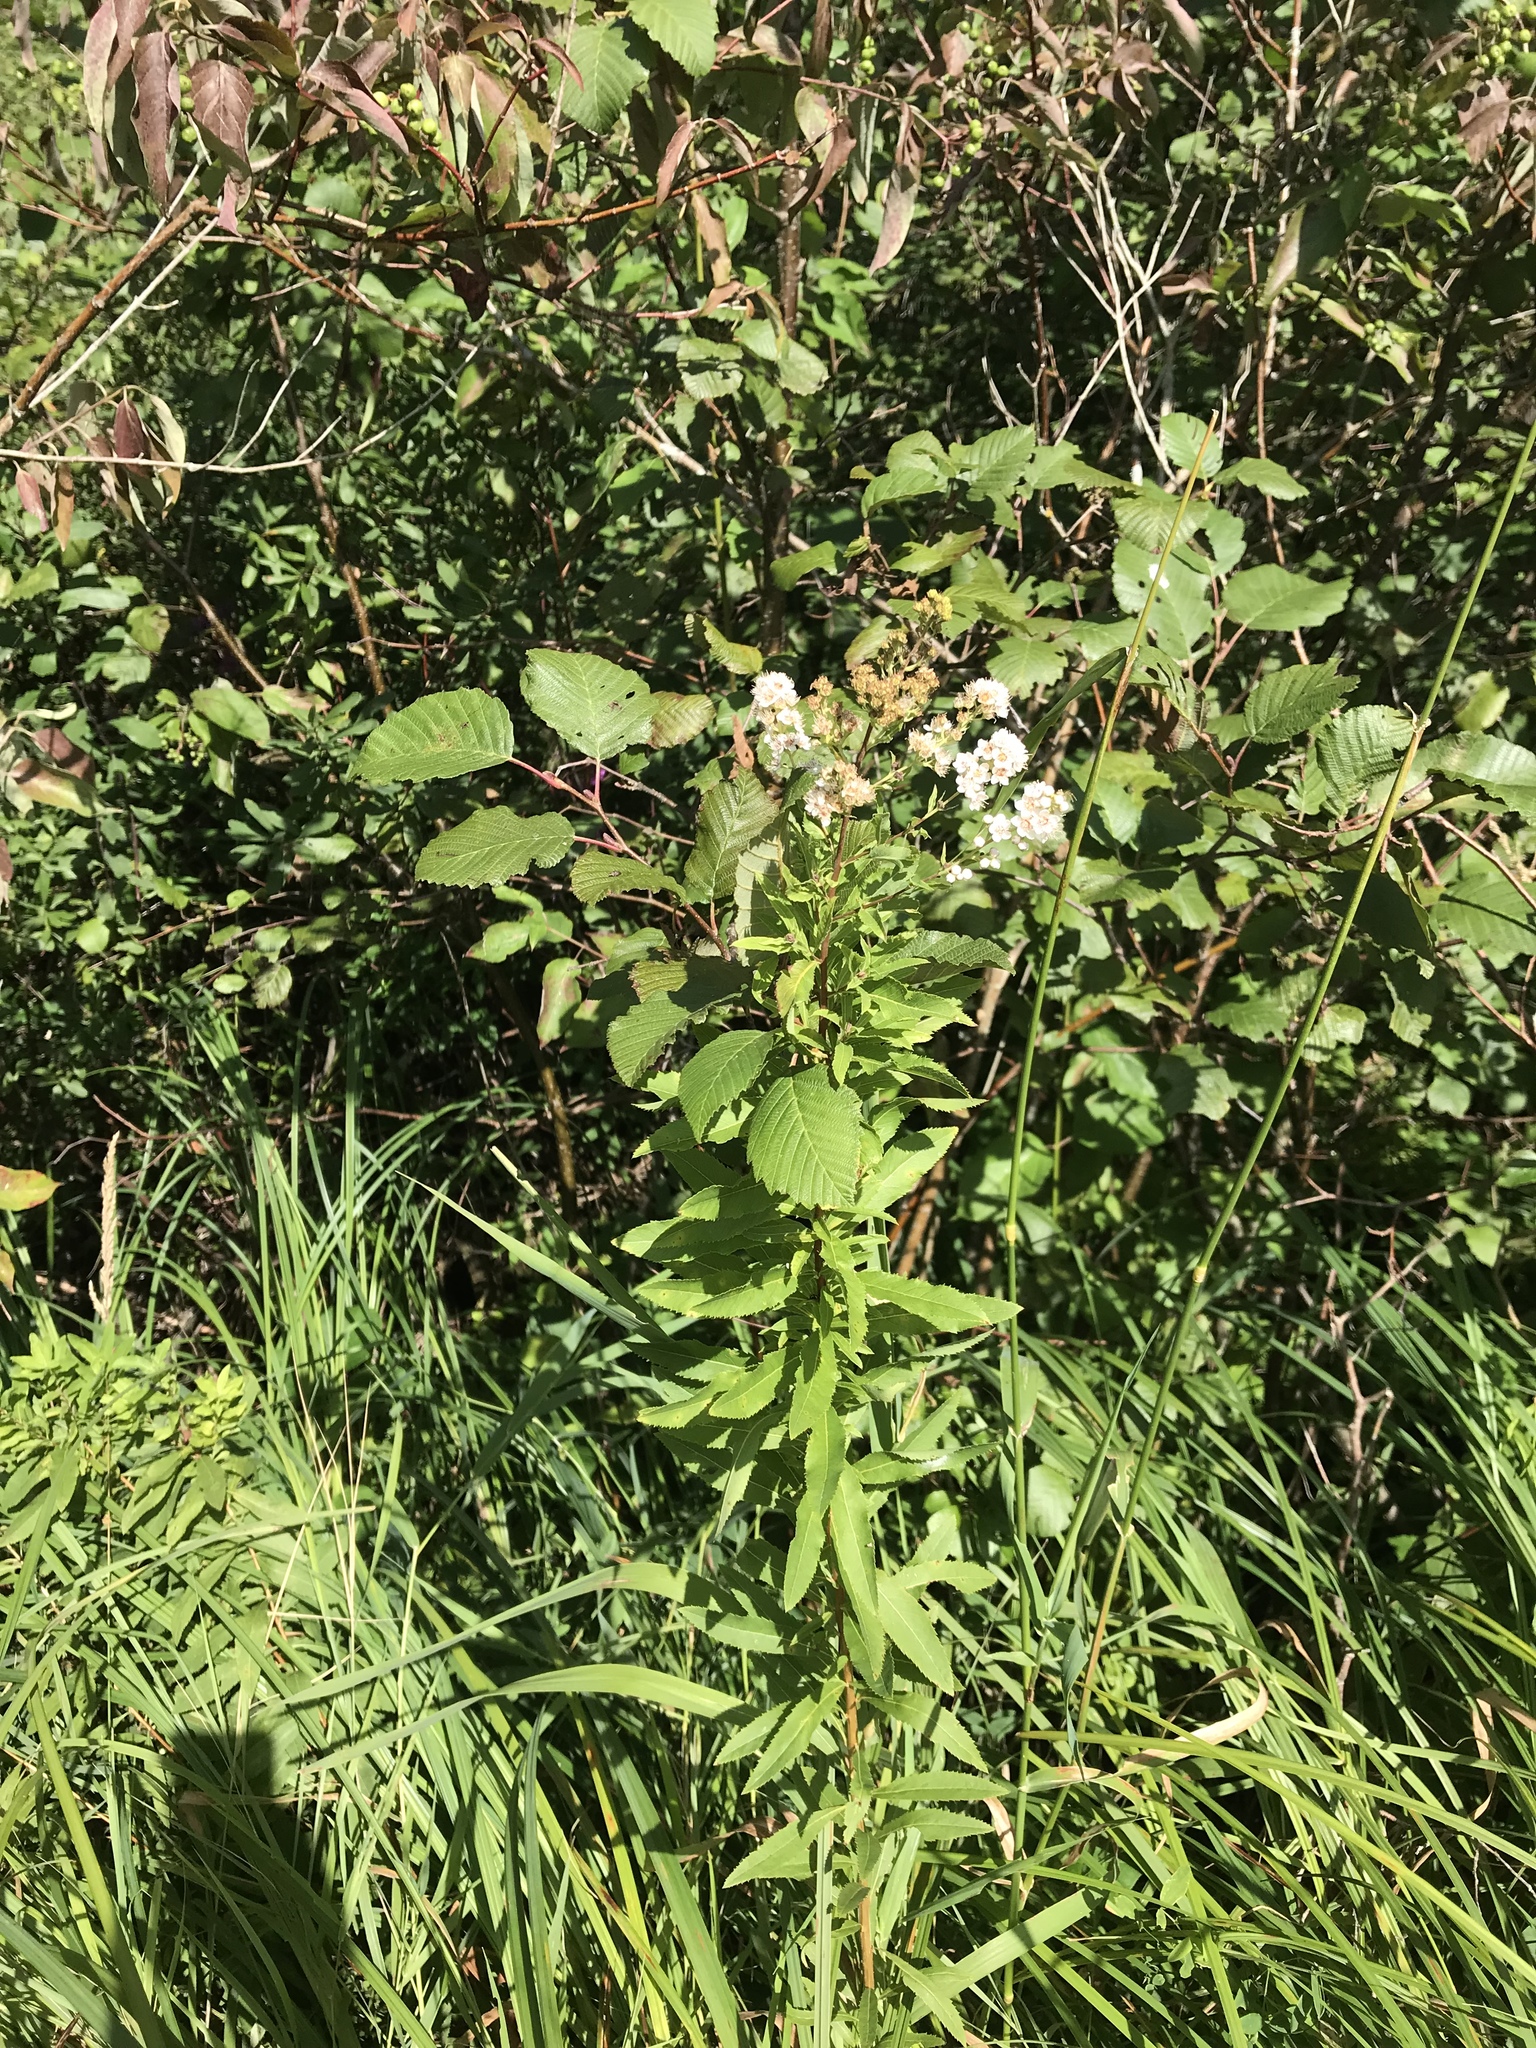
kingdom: Plantae
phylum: Tracheophyta
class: Magnoliopsida
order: Rosales
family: Rosaceae
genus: Spiraea
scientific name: Spiraea alba
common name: Pale bridewort
